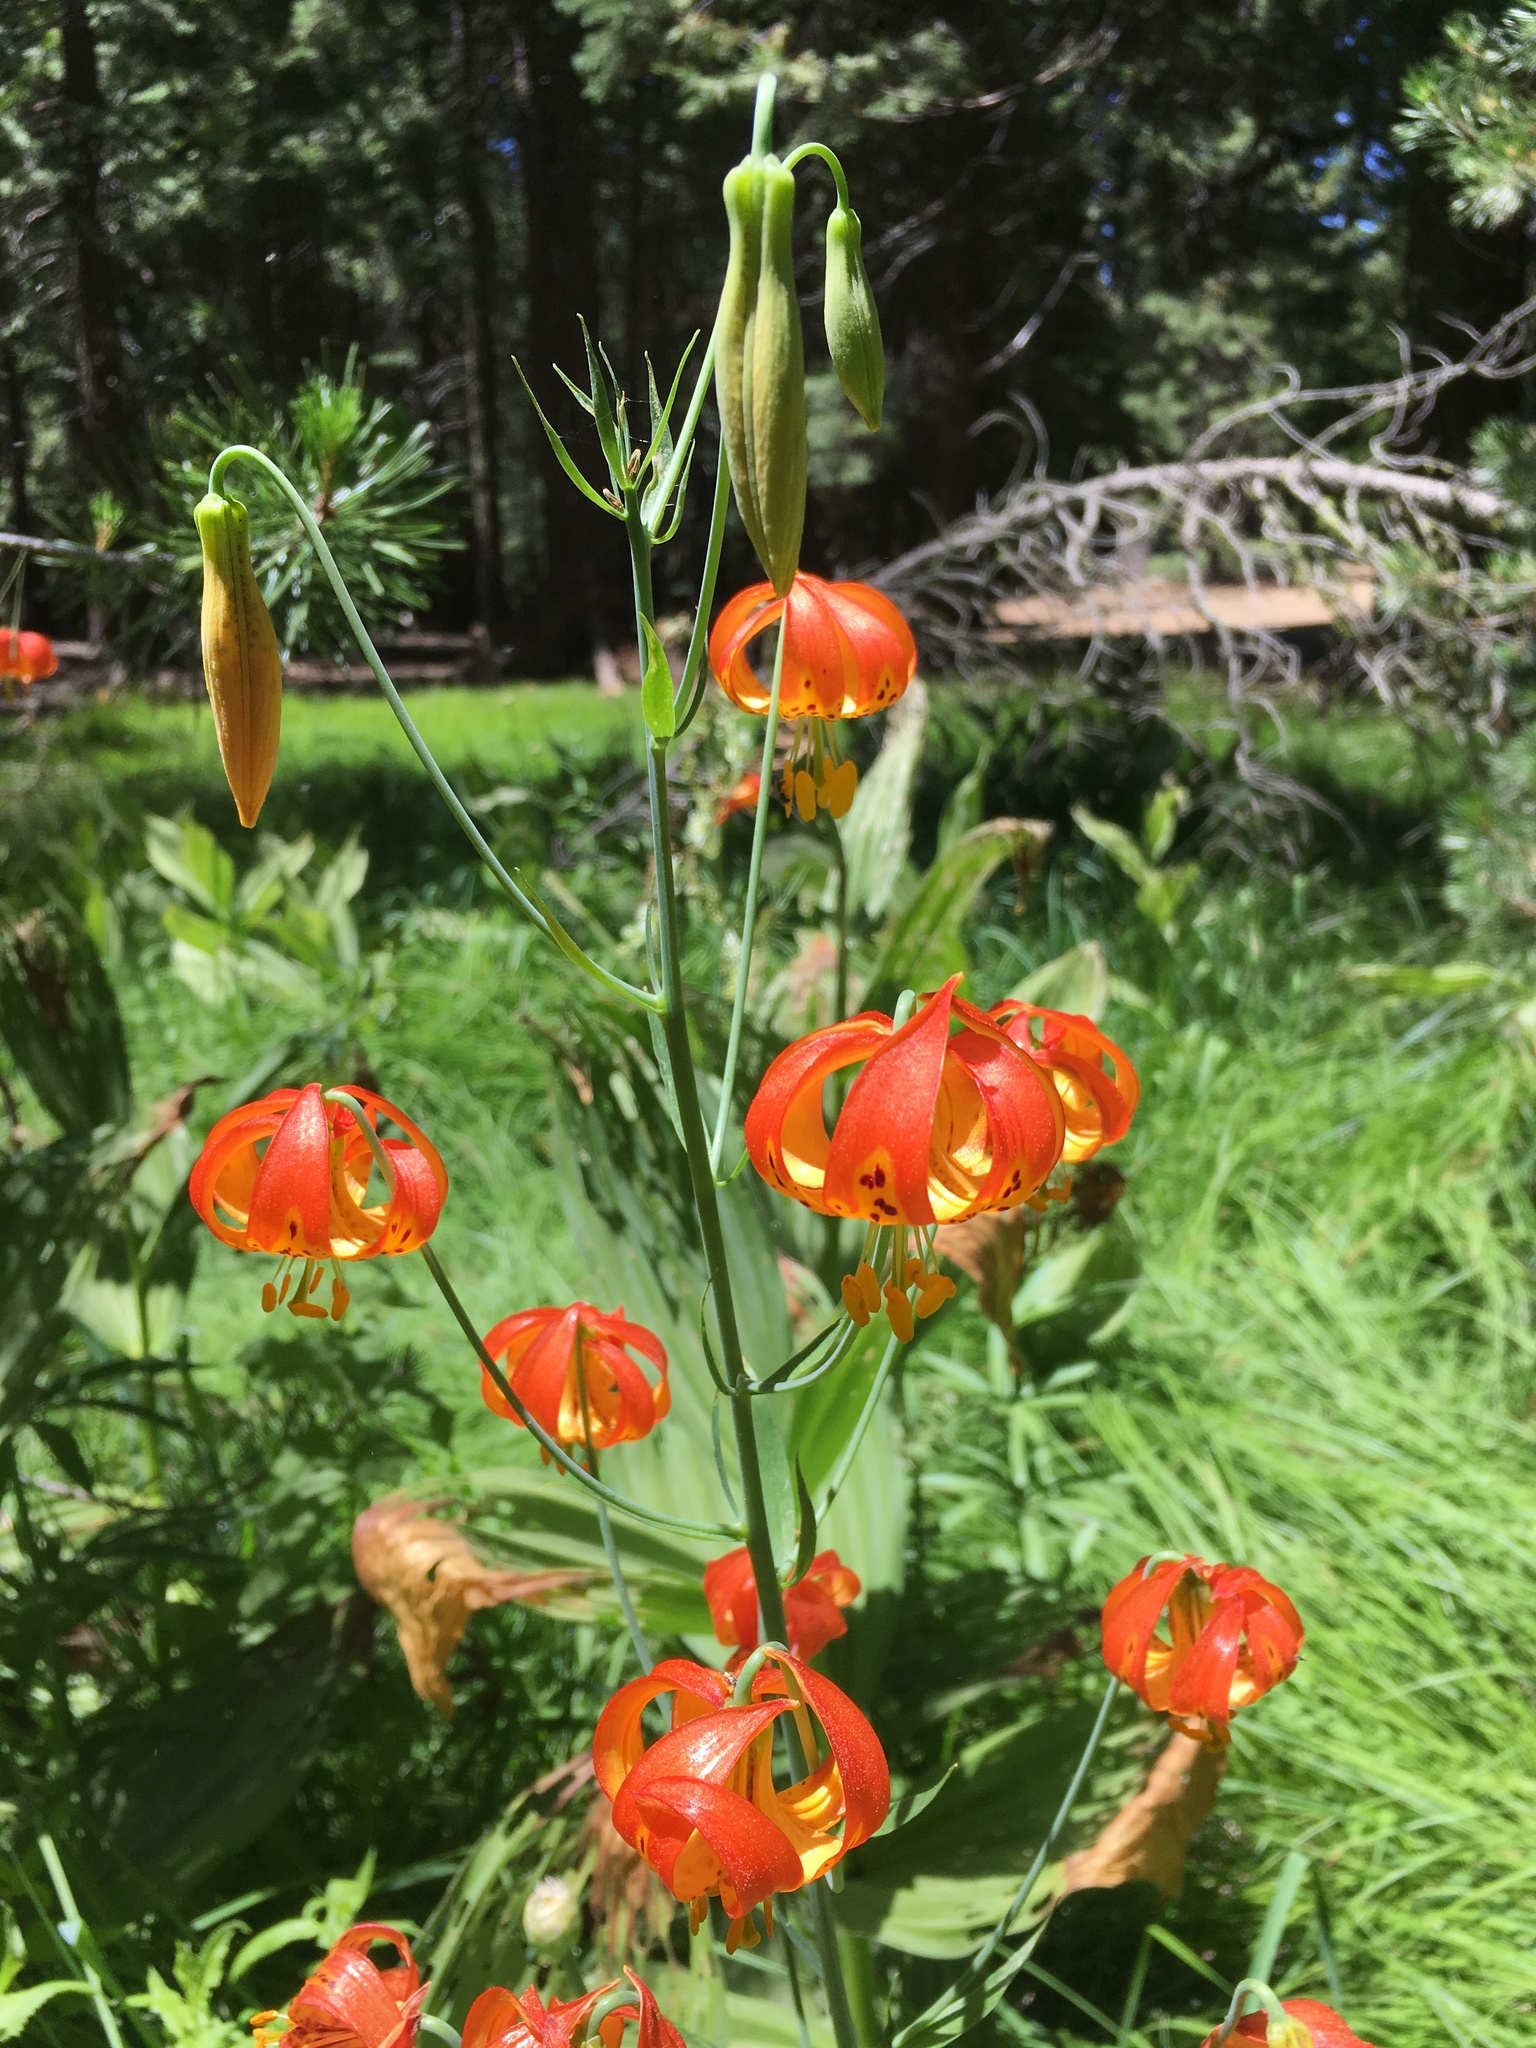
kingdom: Plantae
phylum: Tracheophyta
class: Liliopsida
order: Liliales
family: Liliaceae
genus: Lilium
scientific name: Lilium pardalinum
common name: Panther lily
